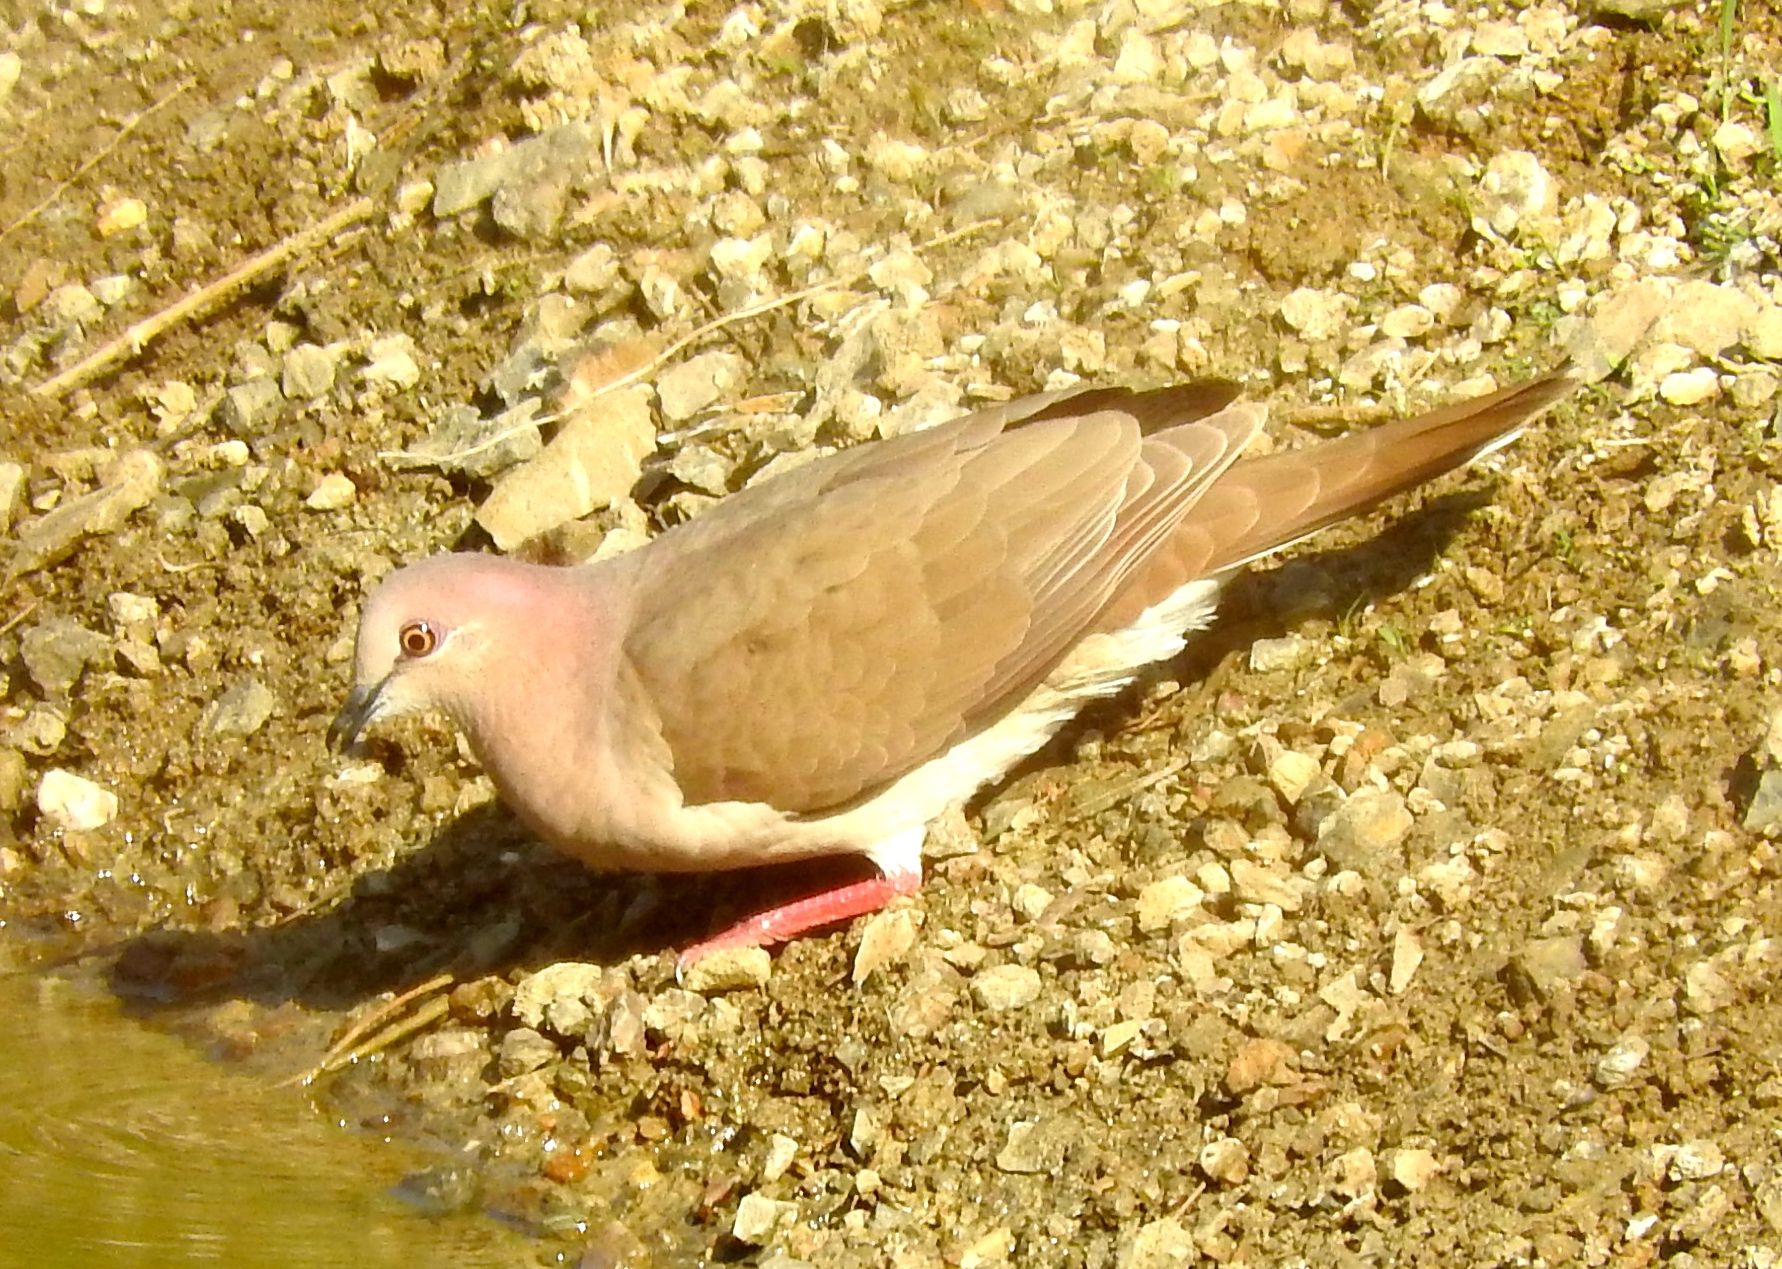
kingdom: Animalia
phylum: Chordata
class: Aves
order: Columbiformes
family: Columbidae
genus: Leptotila
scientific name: Leptotila verreauxi
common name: White-tipped dove
